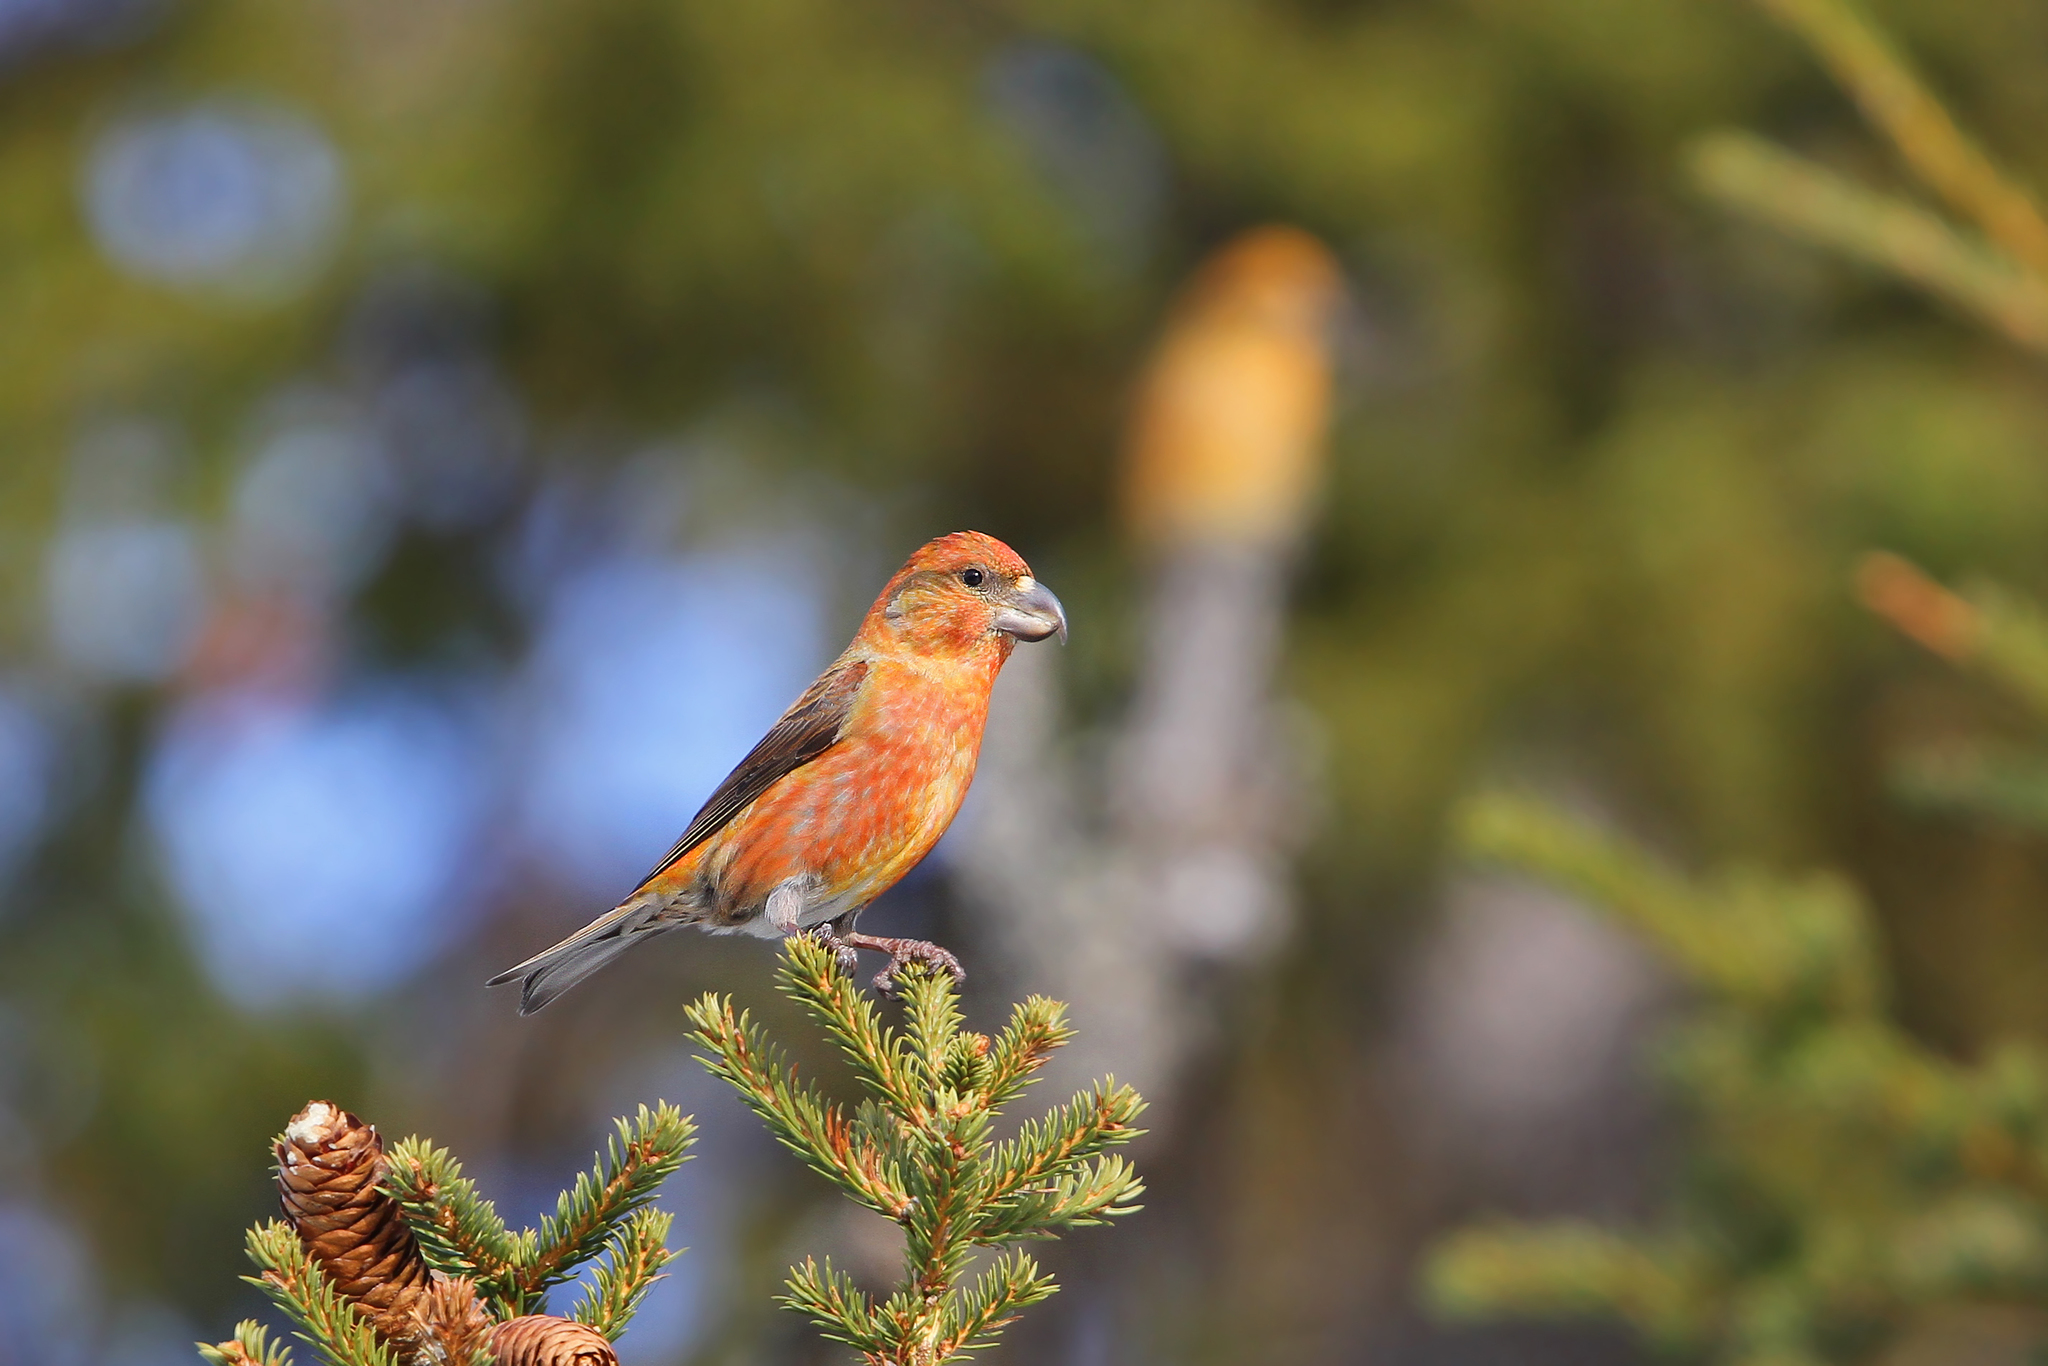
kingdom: Animalia
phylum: Chordata
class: Aves
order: Passeriformes
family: Fringillidae
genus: Loxia
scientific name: Loxia pytyopsittacus
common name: Parrot crossbill
